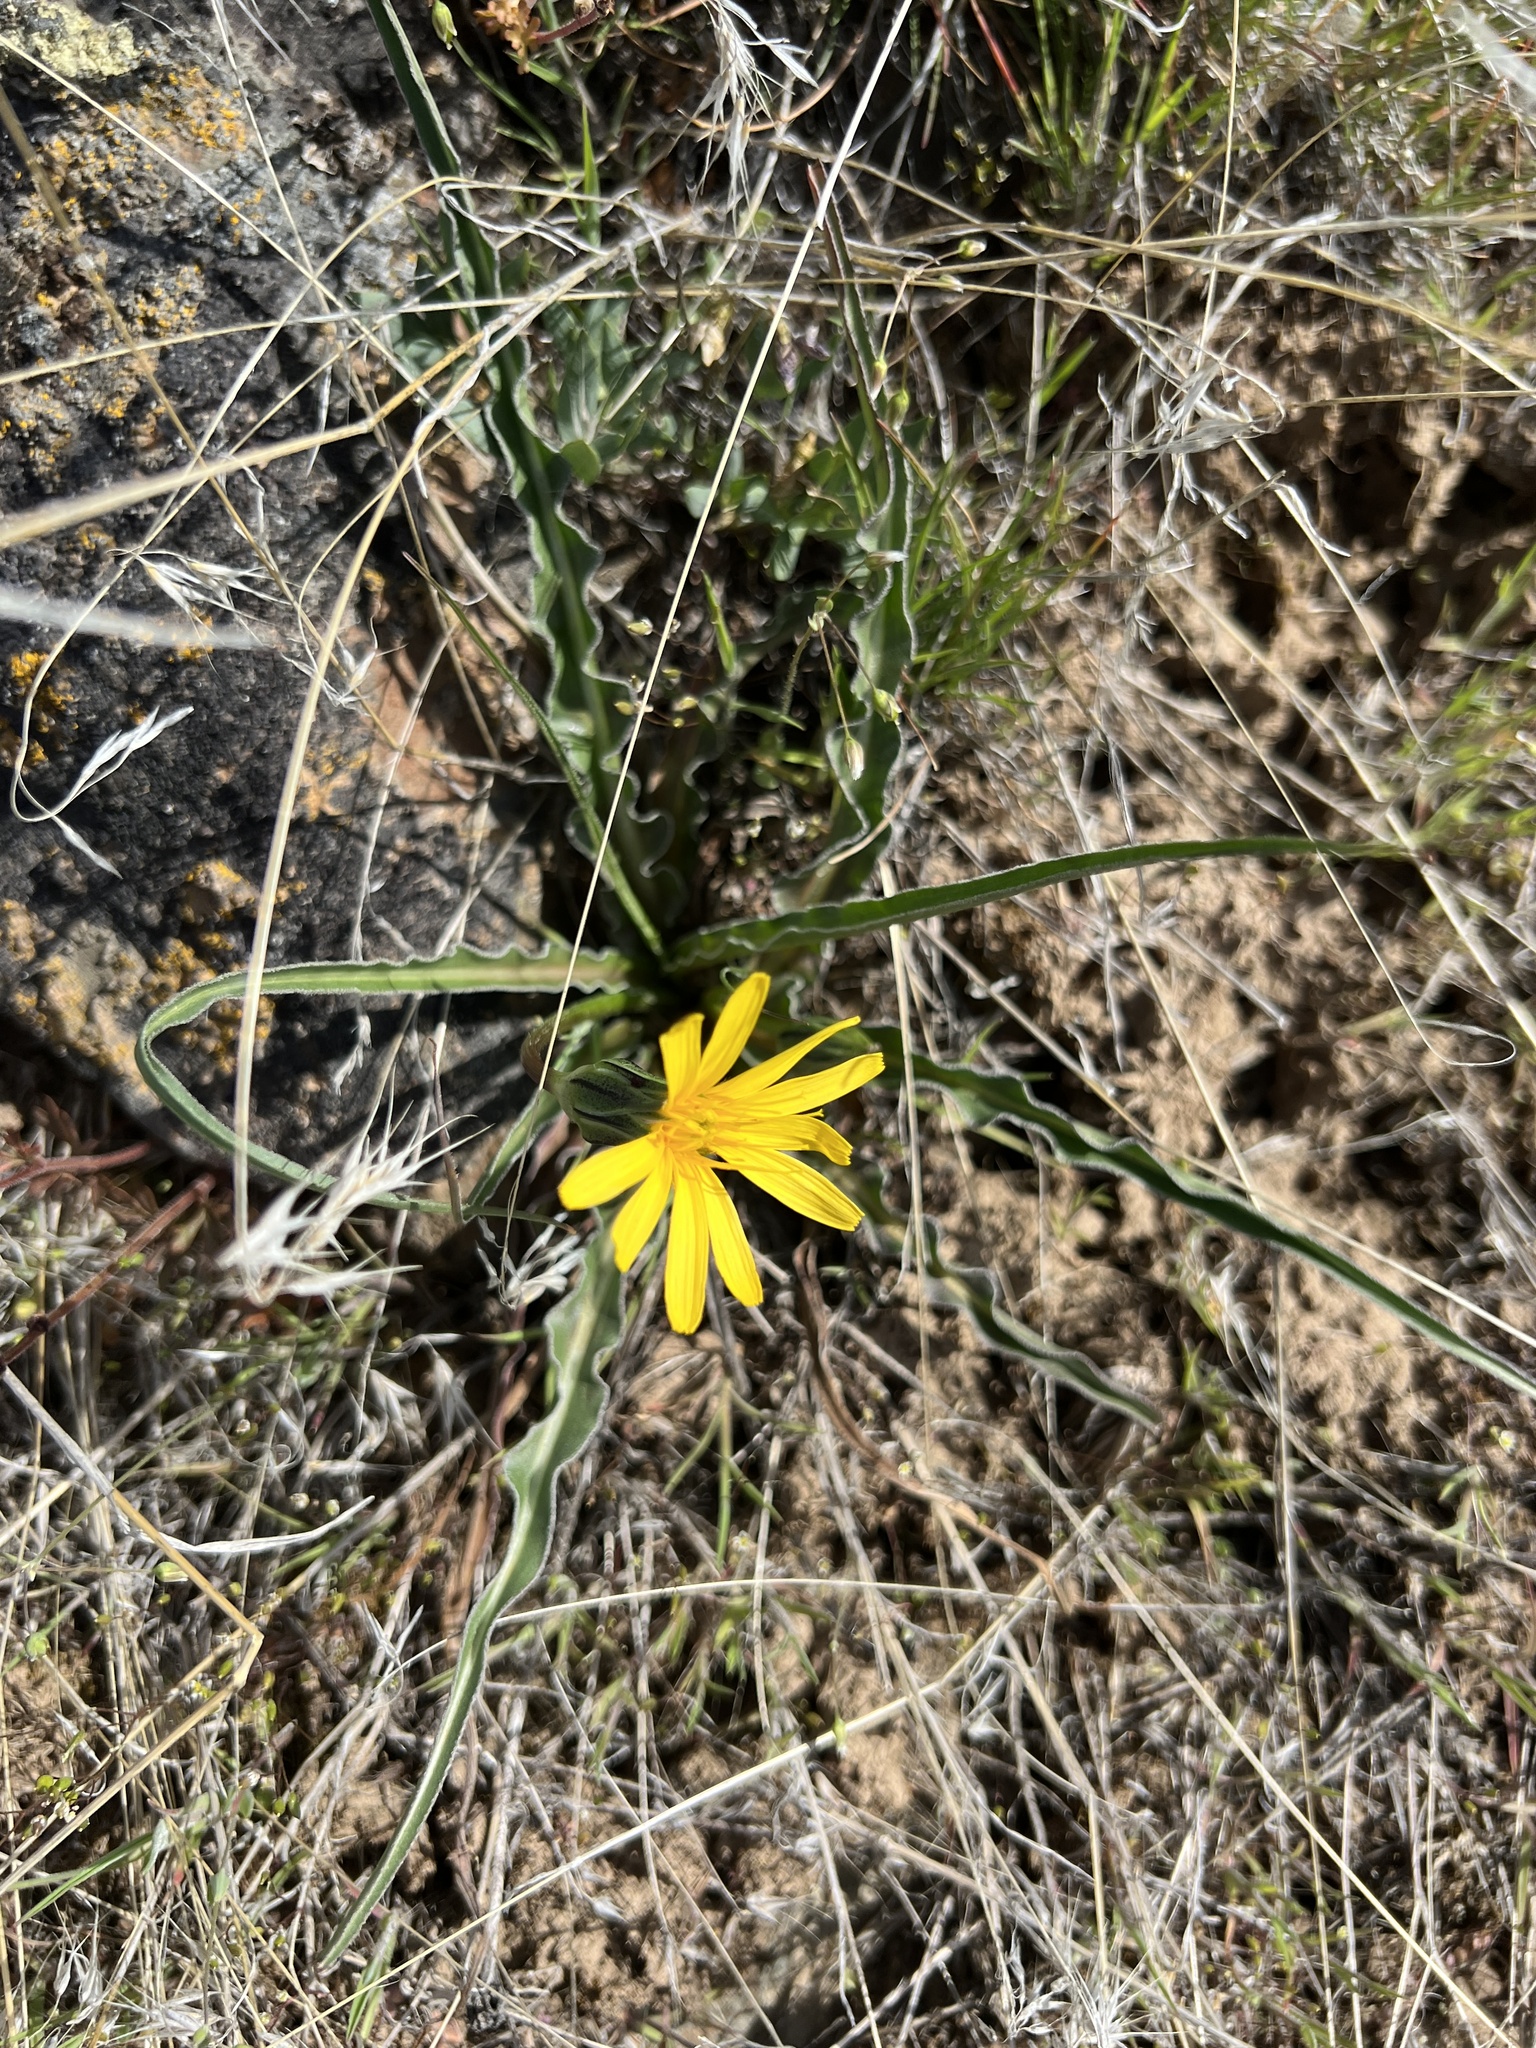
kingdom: Plantae
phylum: Tracheophyta
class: Magnoliopsida
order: Asterales
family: Asteraceae
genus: Microseris
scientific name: Microseris troximoides
